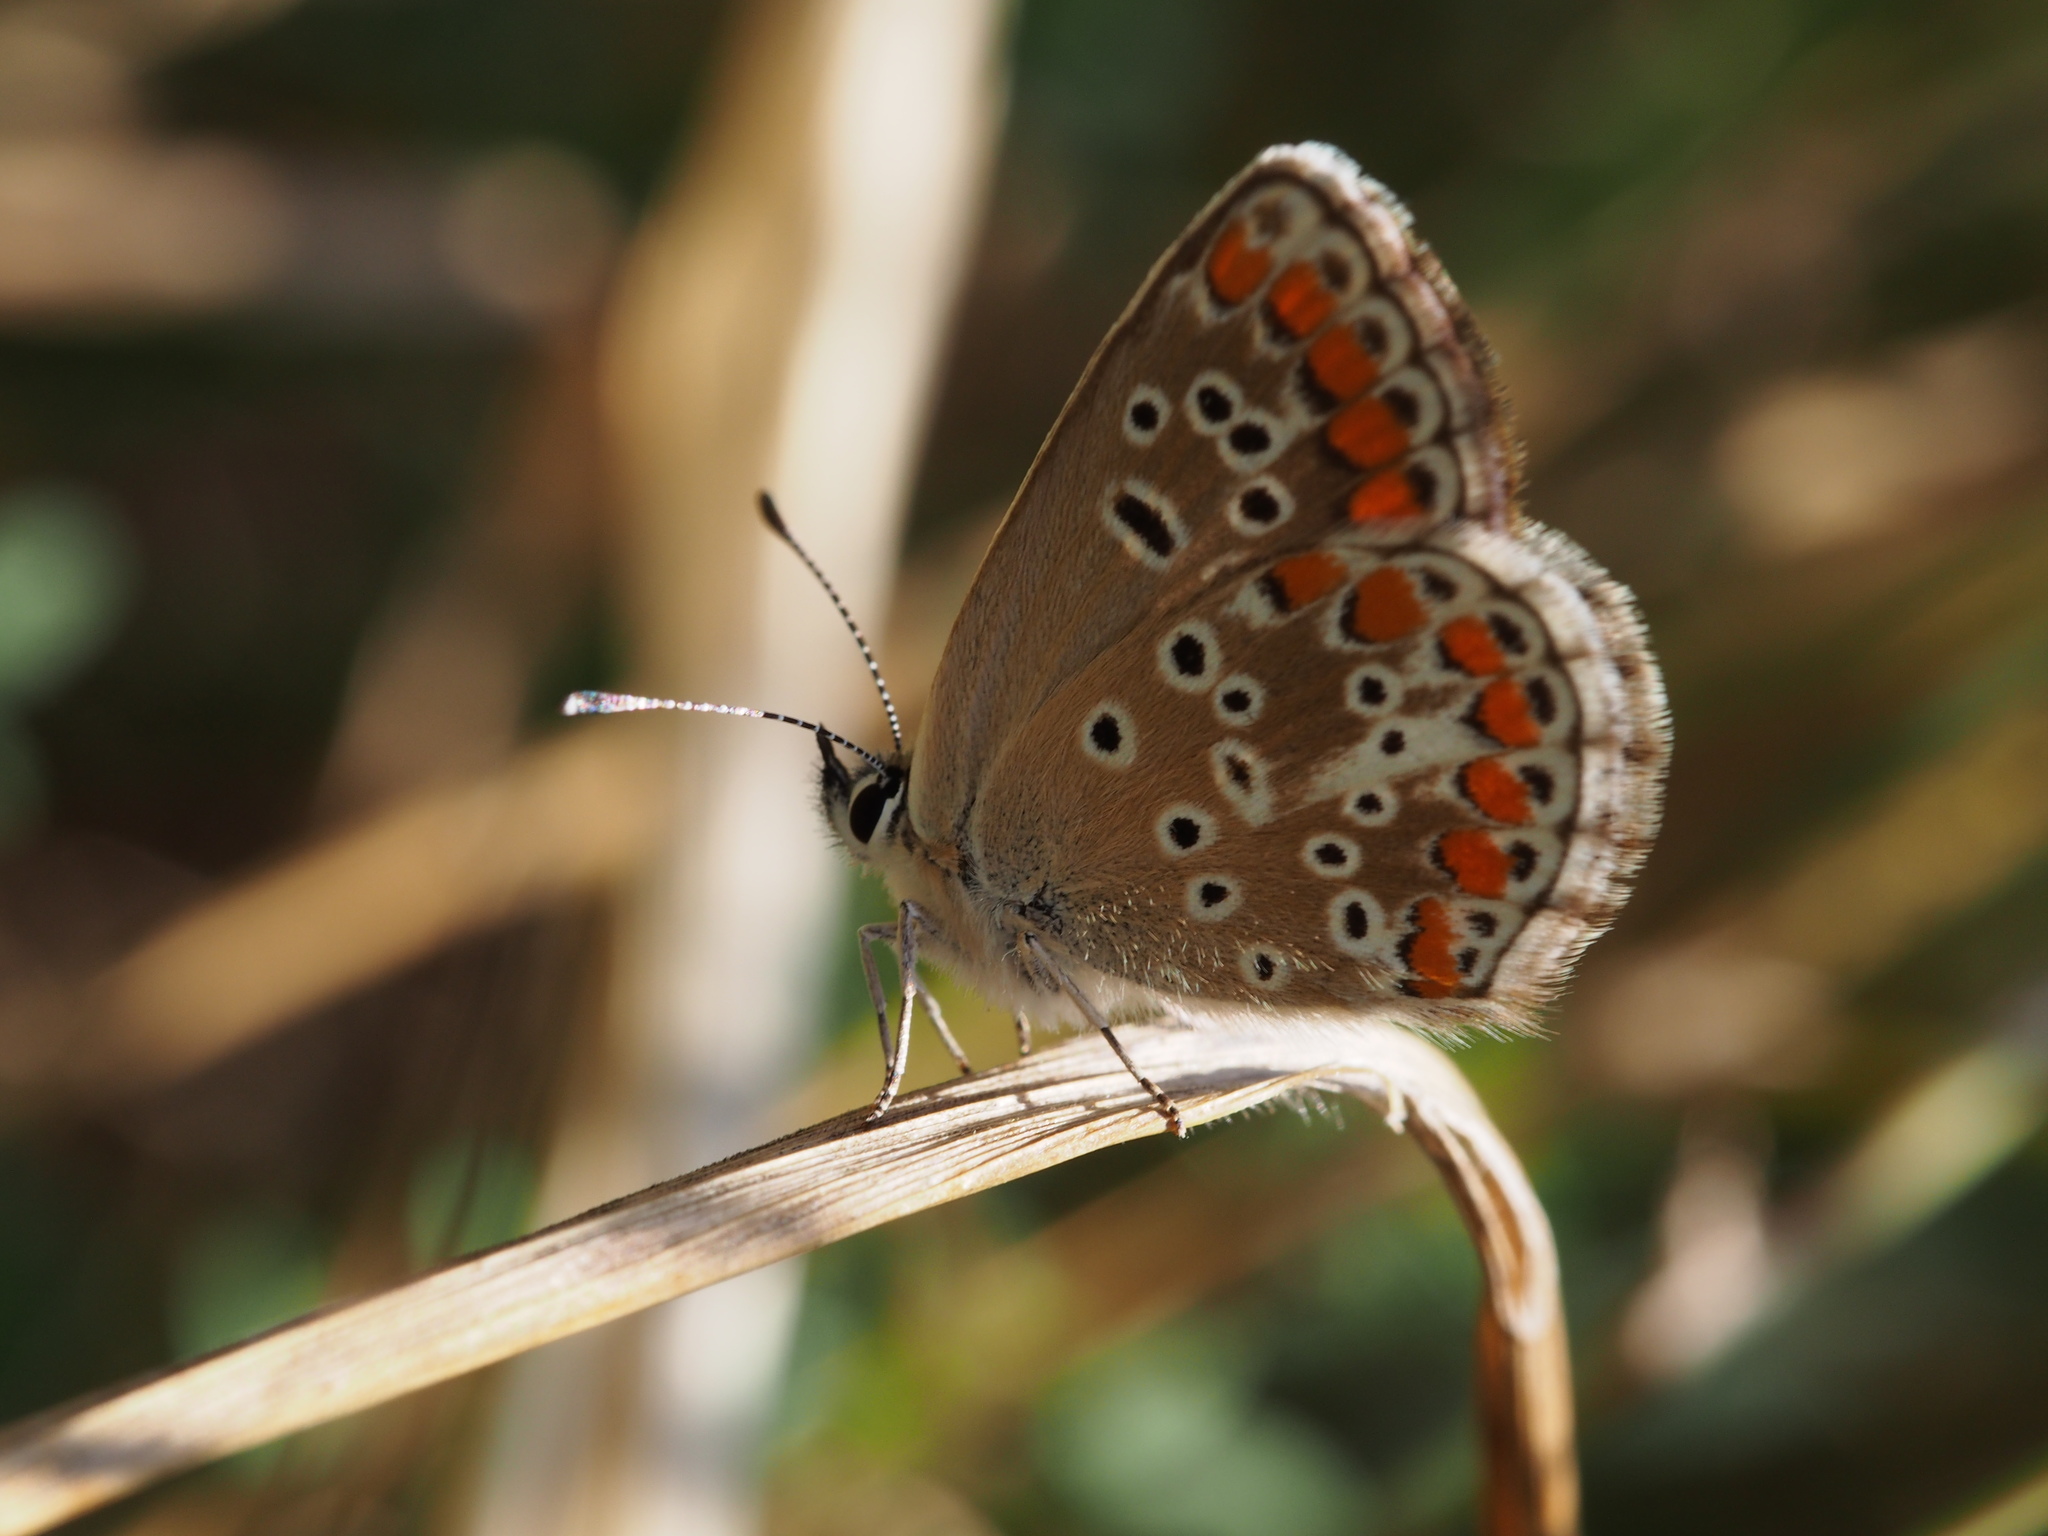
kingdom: Animalia
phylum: Arthropoda
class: Insecta
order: Lepidoptera
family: Lycaenidae
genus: Aricia
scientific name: Aricia agestis
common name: Brown argus
